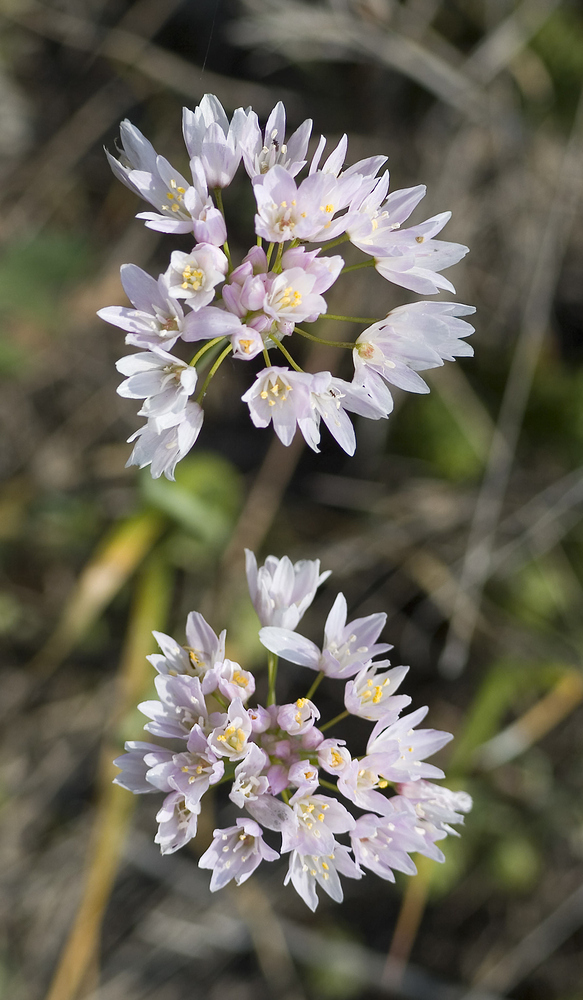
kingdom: Plantae
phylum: Tracheophyta
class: Liliopsida
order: Asparagales
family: Amaryllidaceae
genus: Allium
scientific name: Allium roseum
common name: Rosy garlic
